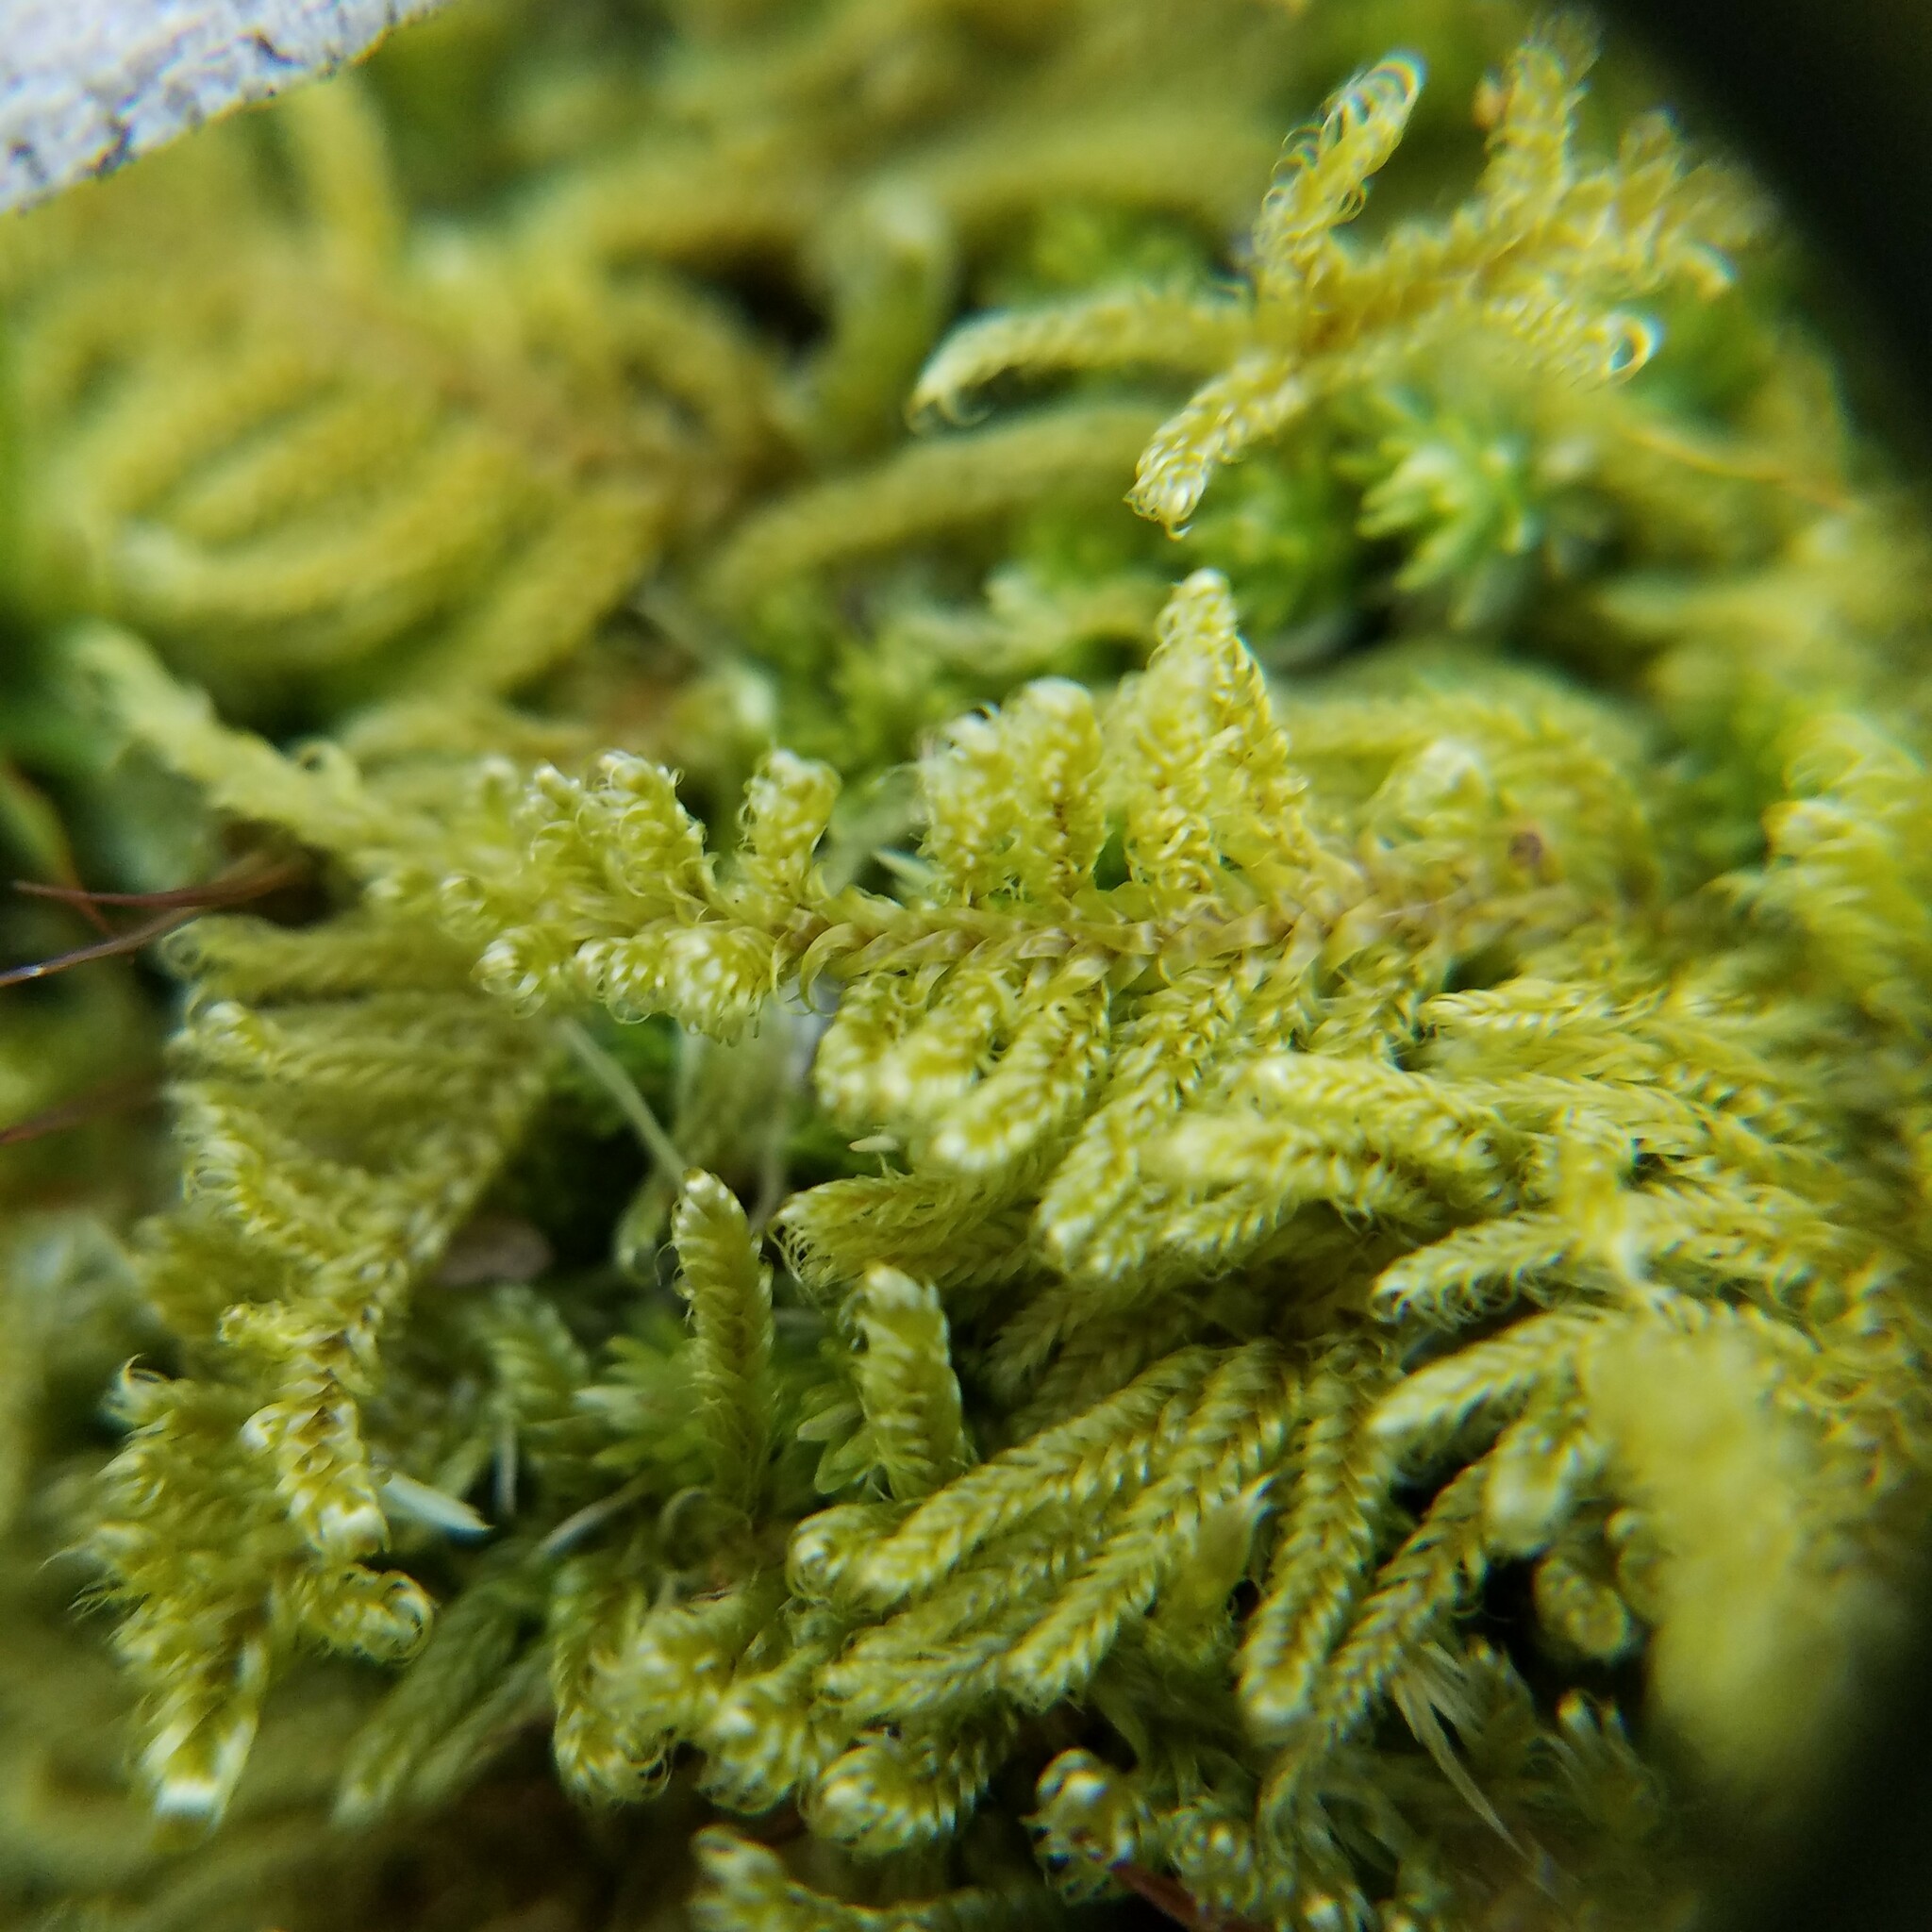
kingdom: Plantae
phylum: Bryophyta
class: Bryopsida
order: Hypnales
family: Callicladiaceae
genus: Callicladium
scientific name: Callicladium imponens
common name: Brocade moss
